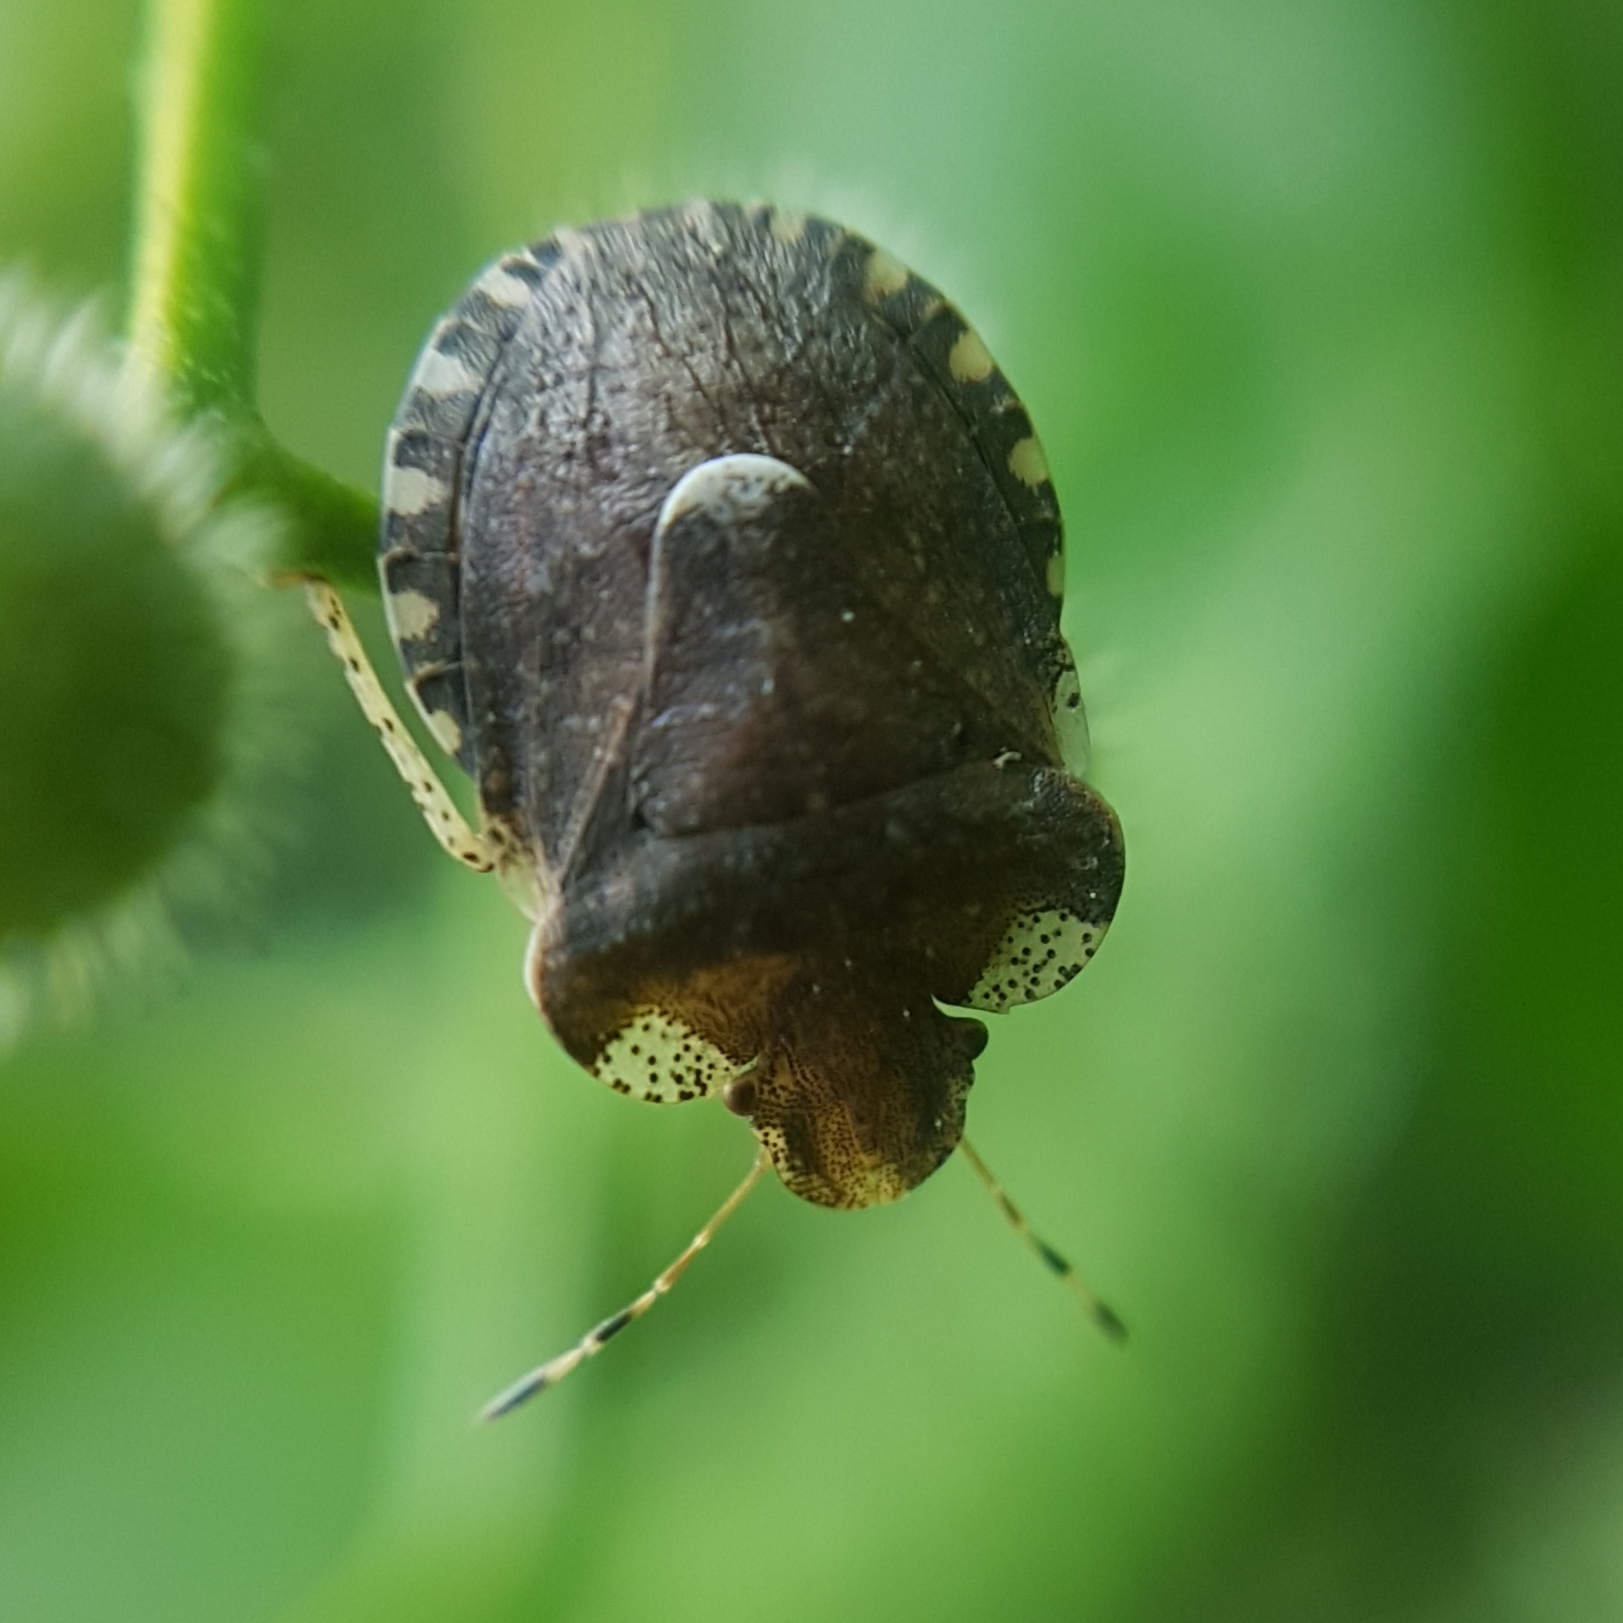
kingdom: Animalia
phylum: Arthropoda
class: Insecta
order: Hemiptera
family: Pentatomidae
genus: Dyroderes
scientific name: Dyroderes umbraculatus
